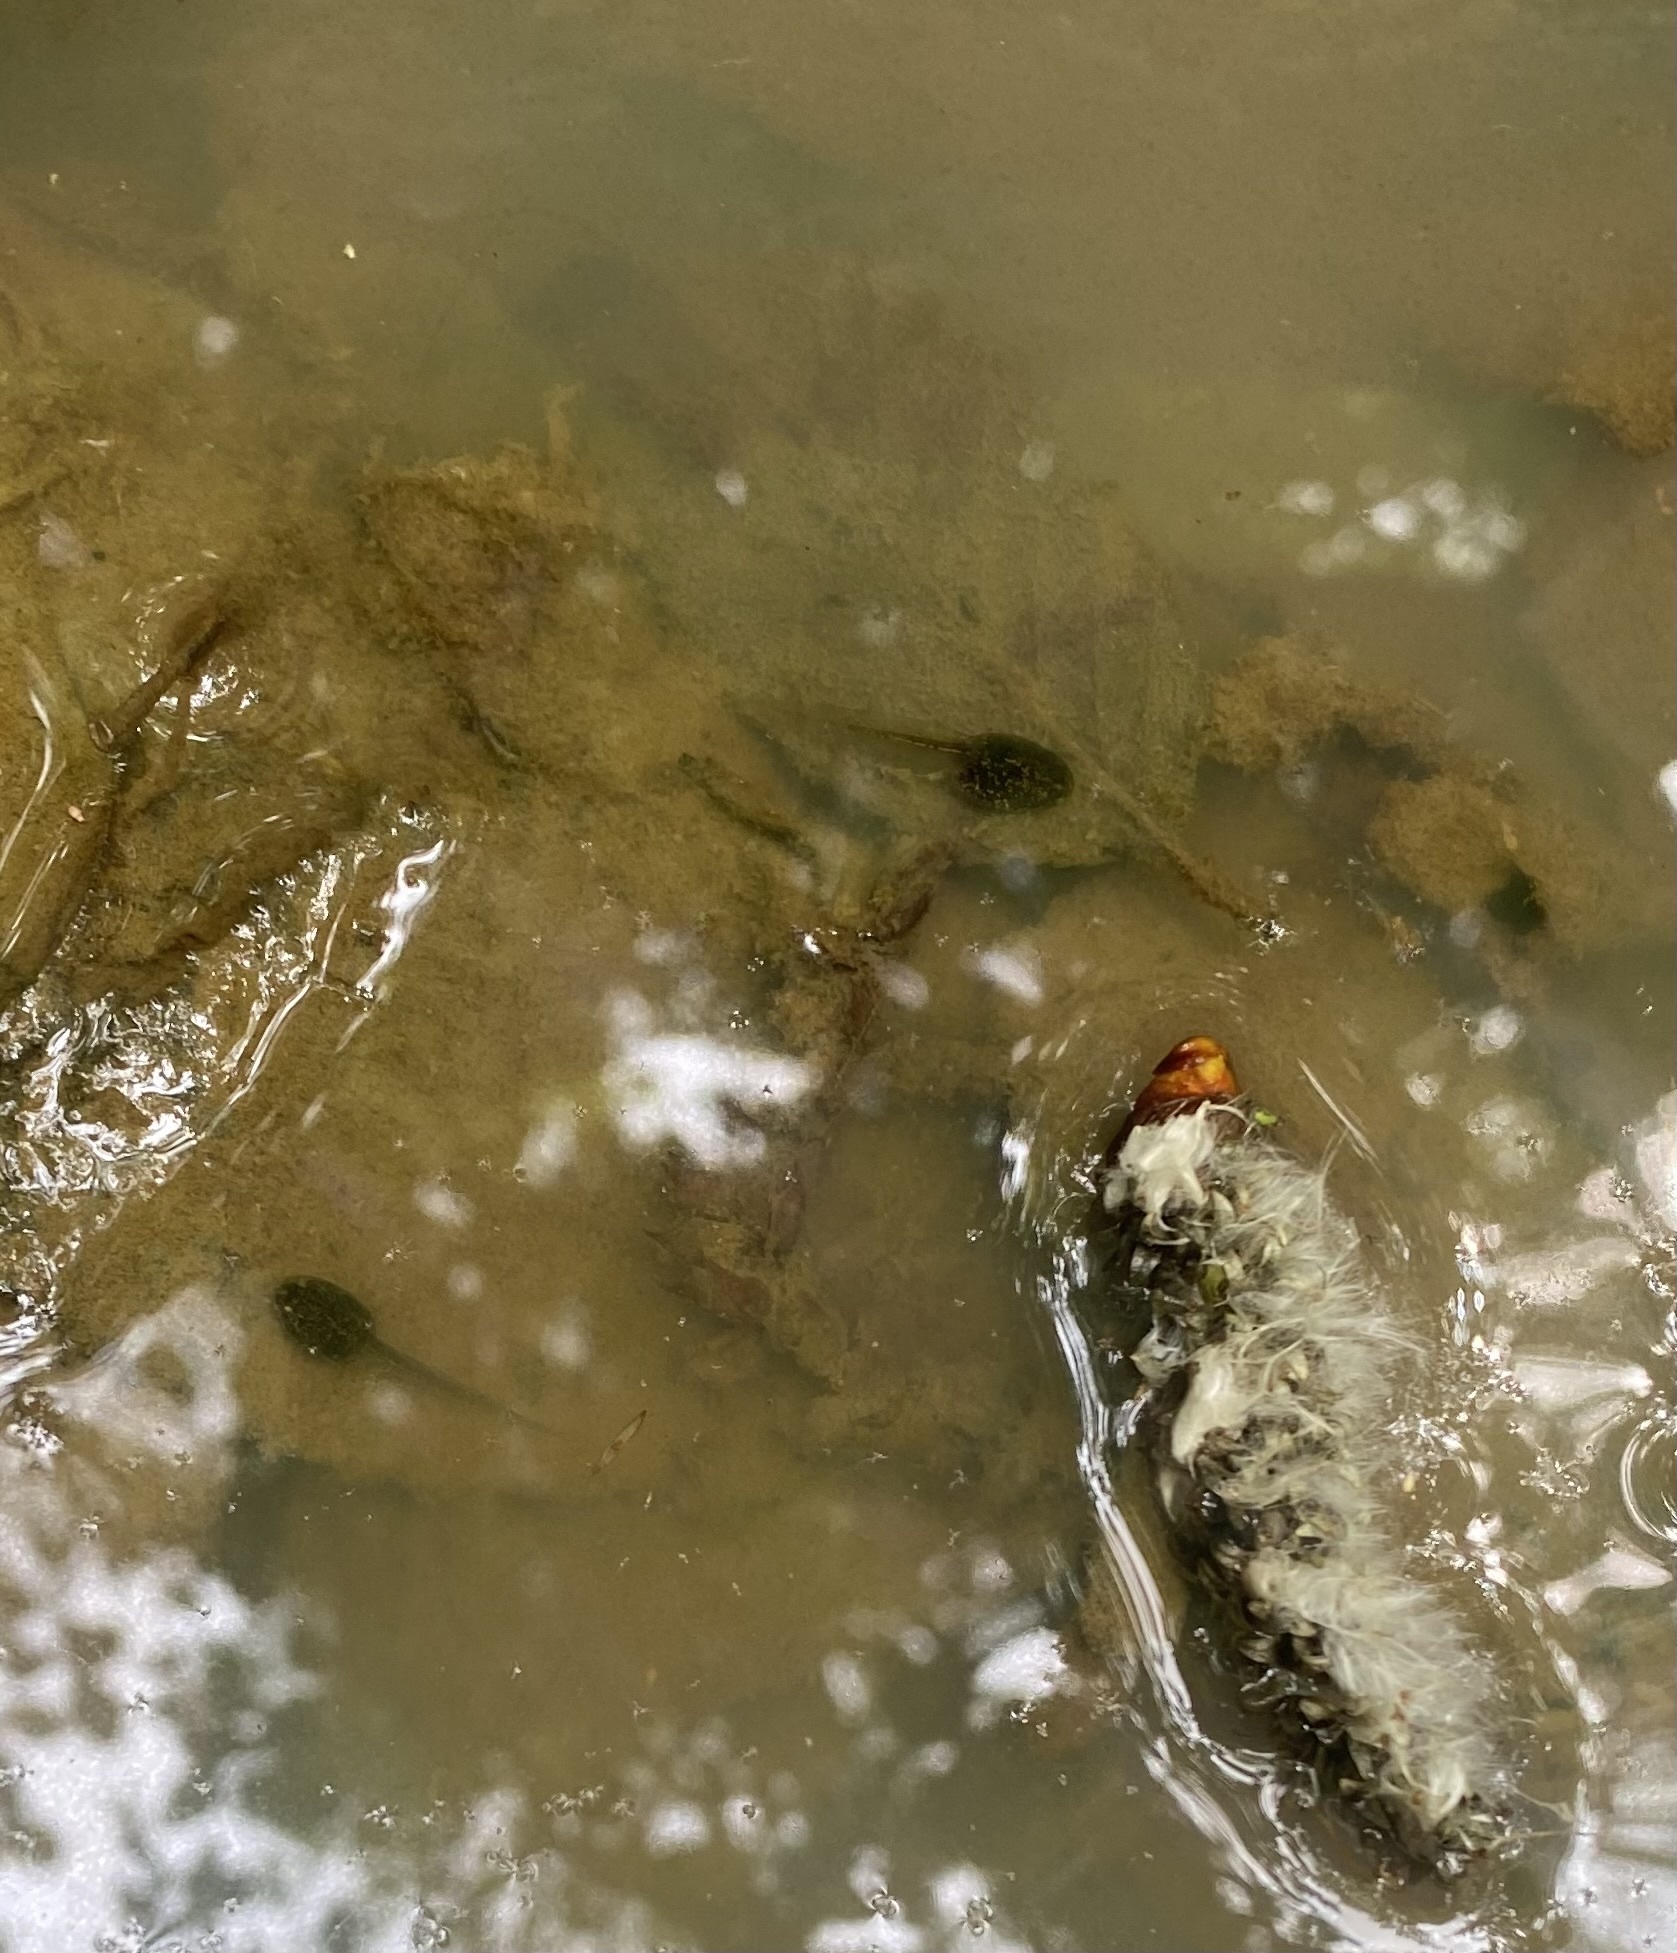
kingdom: Animalia
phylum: Chordata
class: Amphibia
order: Anura
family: Ranidae
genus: Rana
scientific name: Rana macrocnemis
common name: Banded frog
